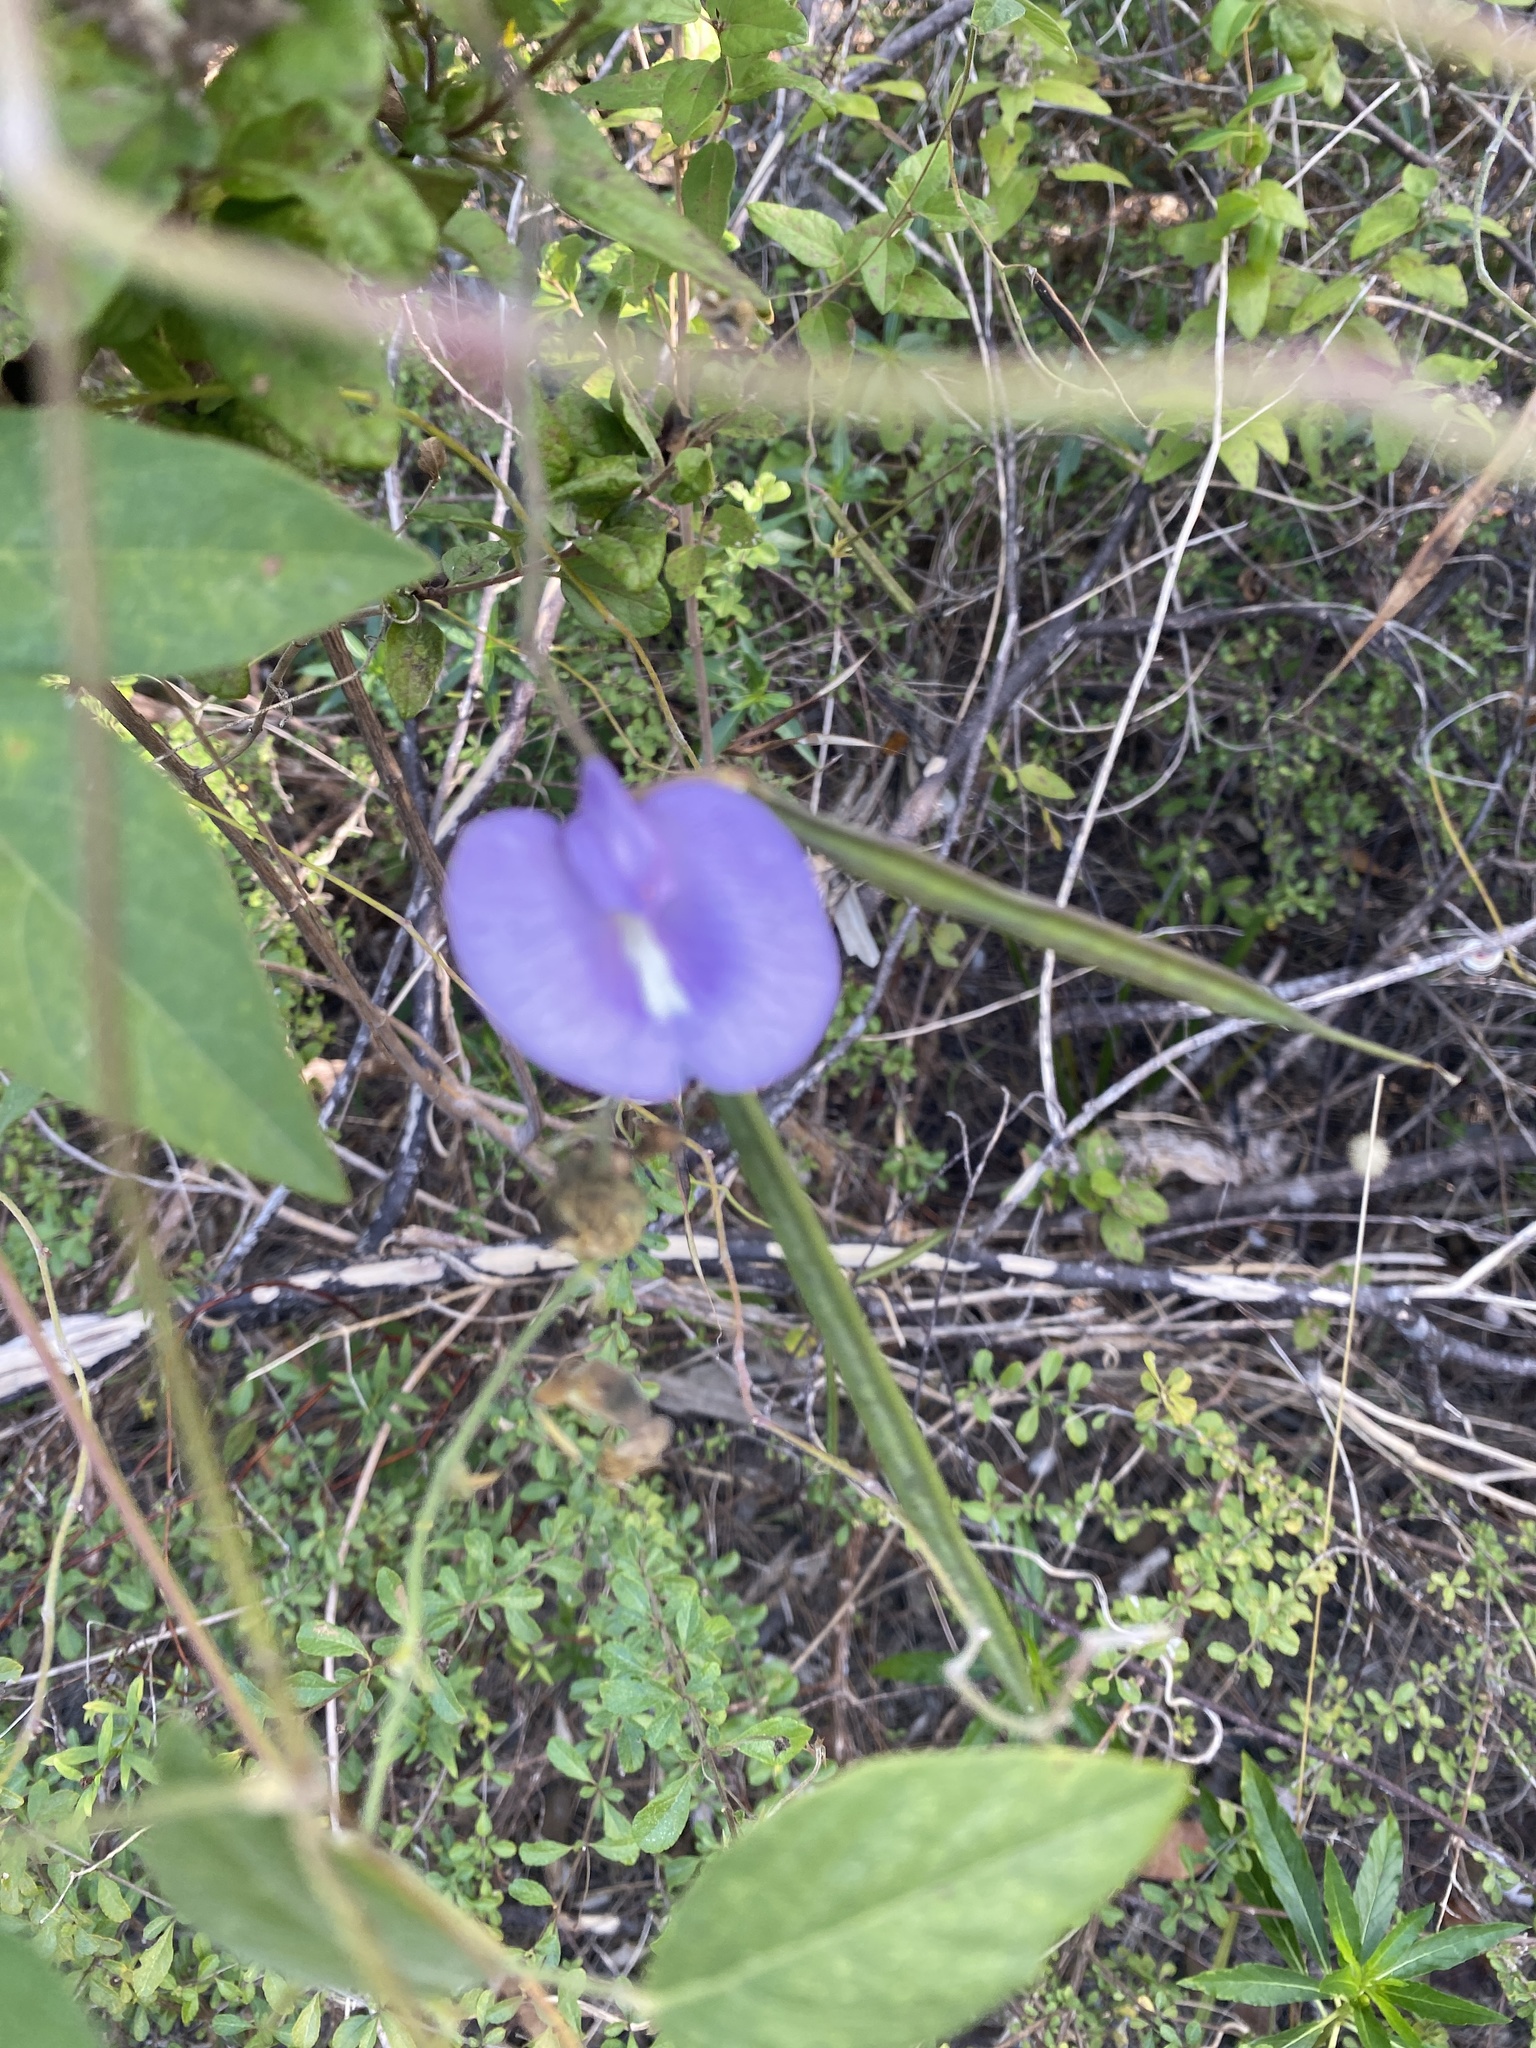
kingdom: Plantae
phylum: Tracheophyta
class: Magnoliopsida
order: Fabales
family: Fabaceae
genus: Centrosema
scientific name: Centrosema virginianum
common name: Butterfly-pea
